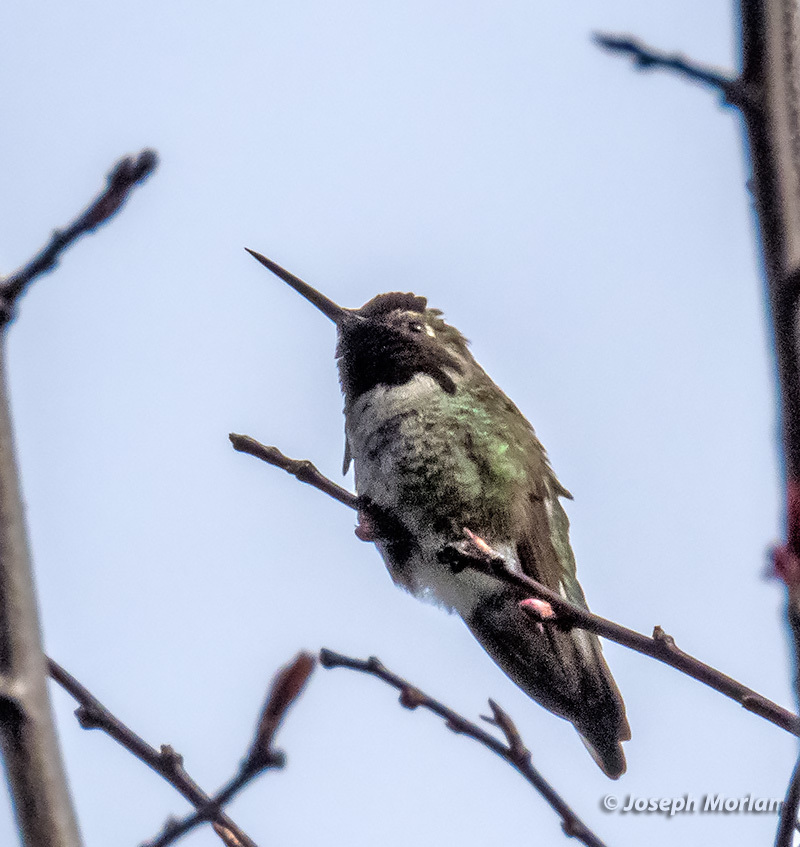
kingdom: Animalia
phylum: Chordata
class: Aves
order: Apodiformes
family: Trochilidae
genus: Calypte
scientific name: Calypte anna
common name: Anna's hummingbird
